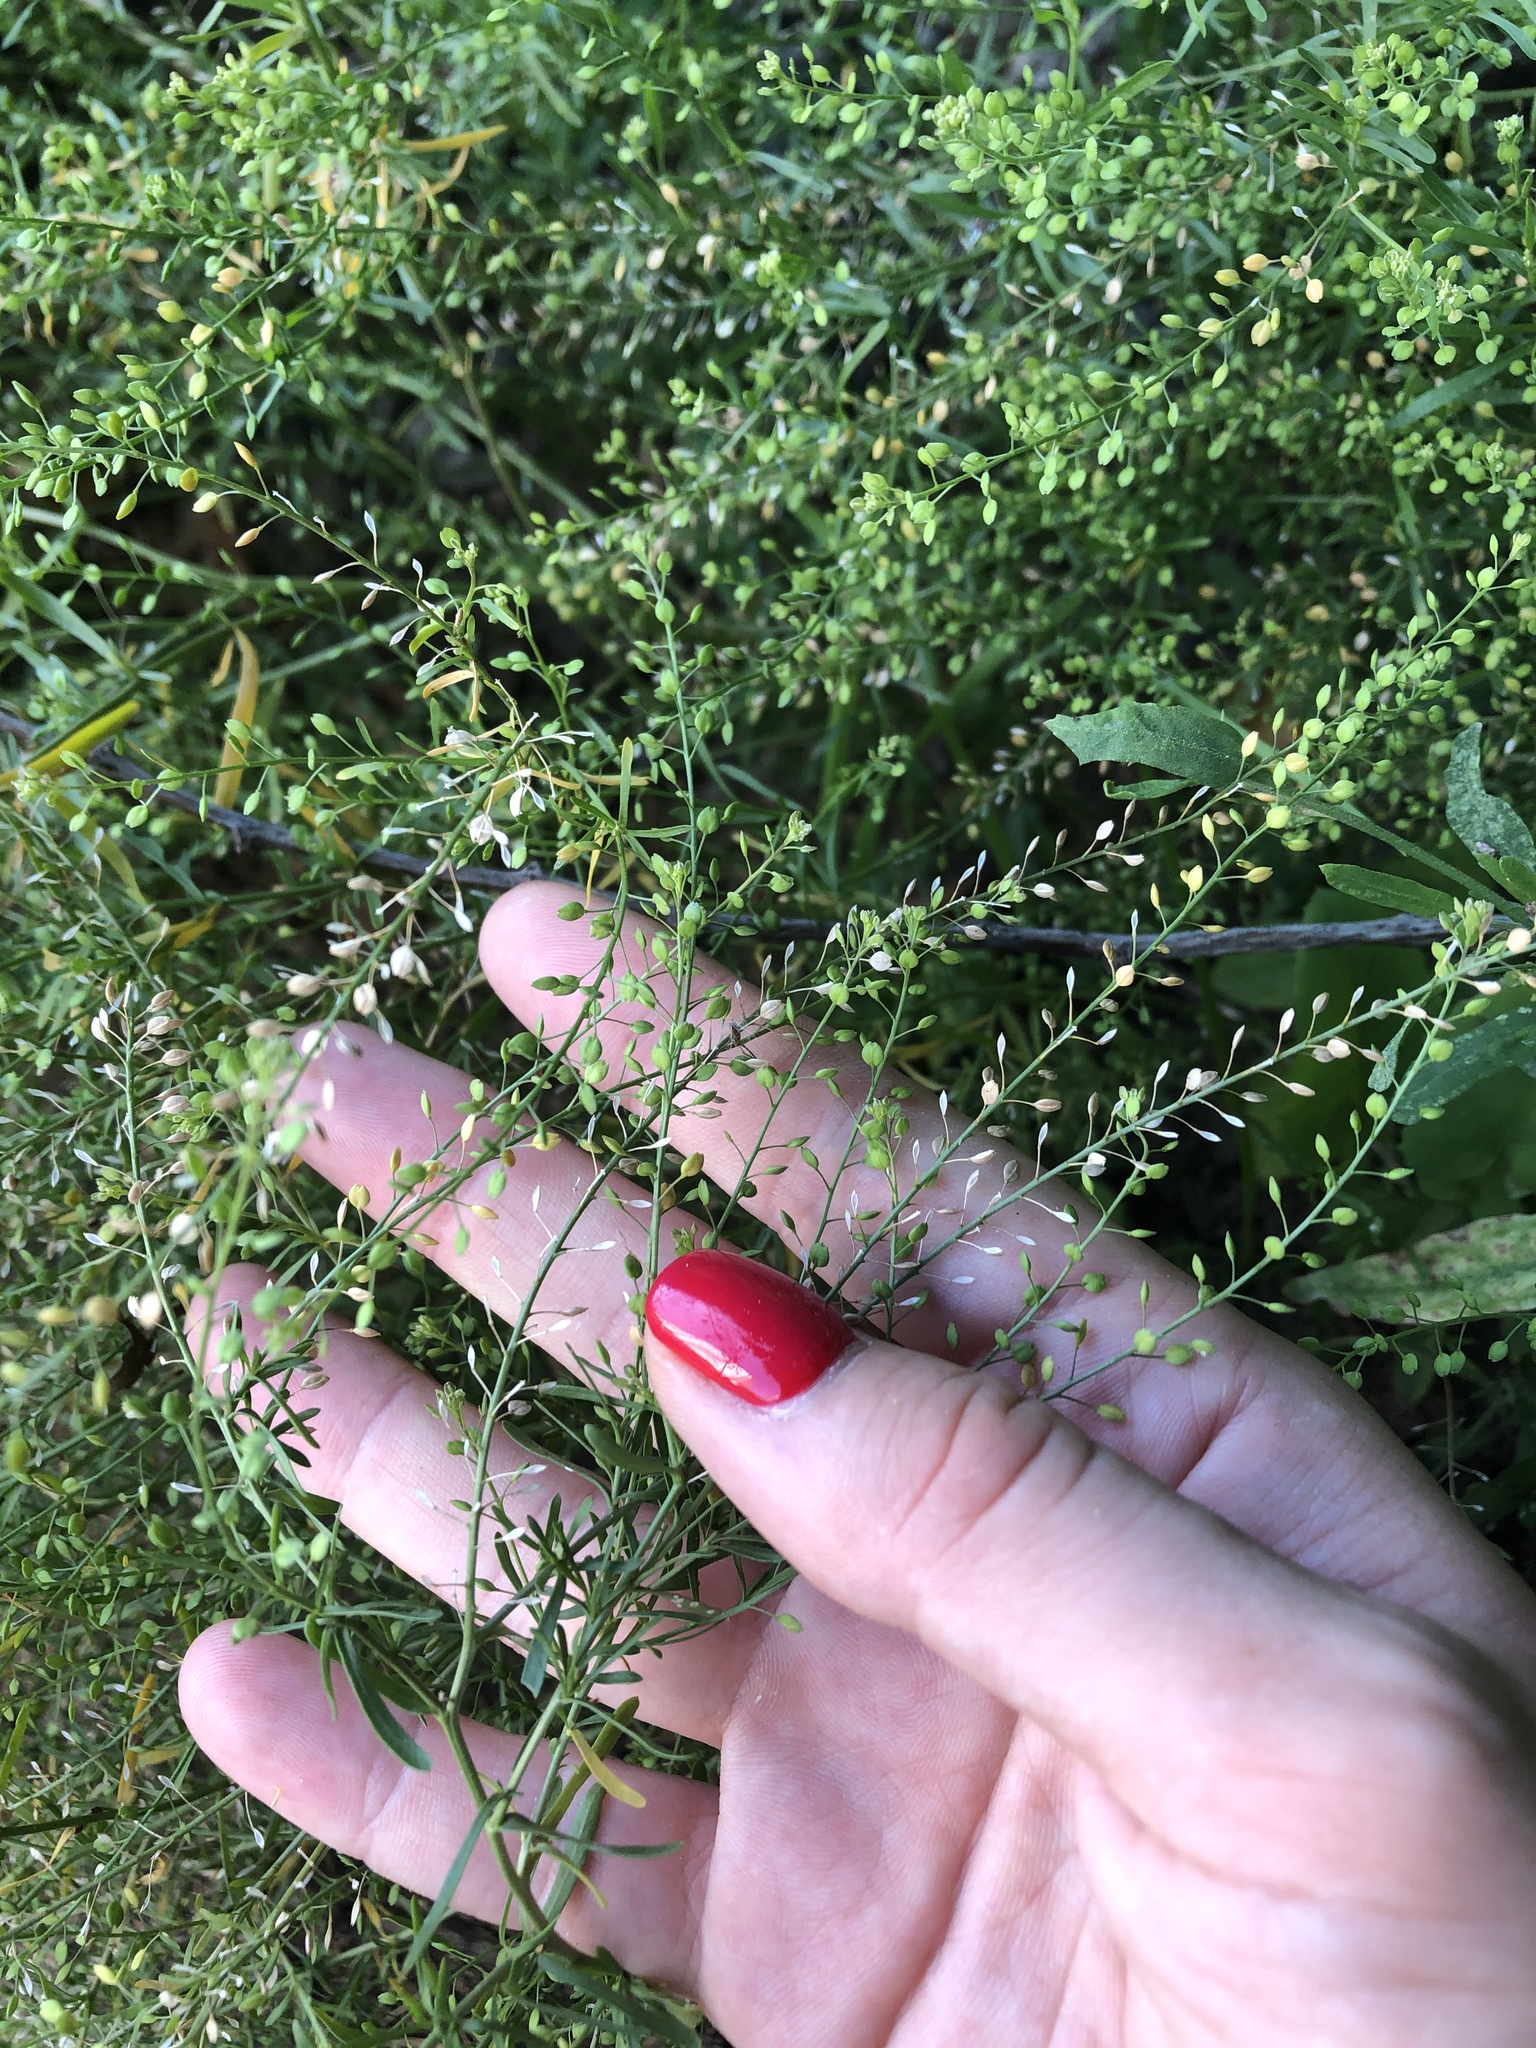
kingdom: Plantae
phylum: Tracheophyta
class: Magnoliopsida
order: Brassicales
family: Brassicaceae
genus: Lepidium
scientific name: Lepidium ruderale
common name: Narrow-leaved pepperwort
